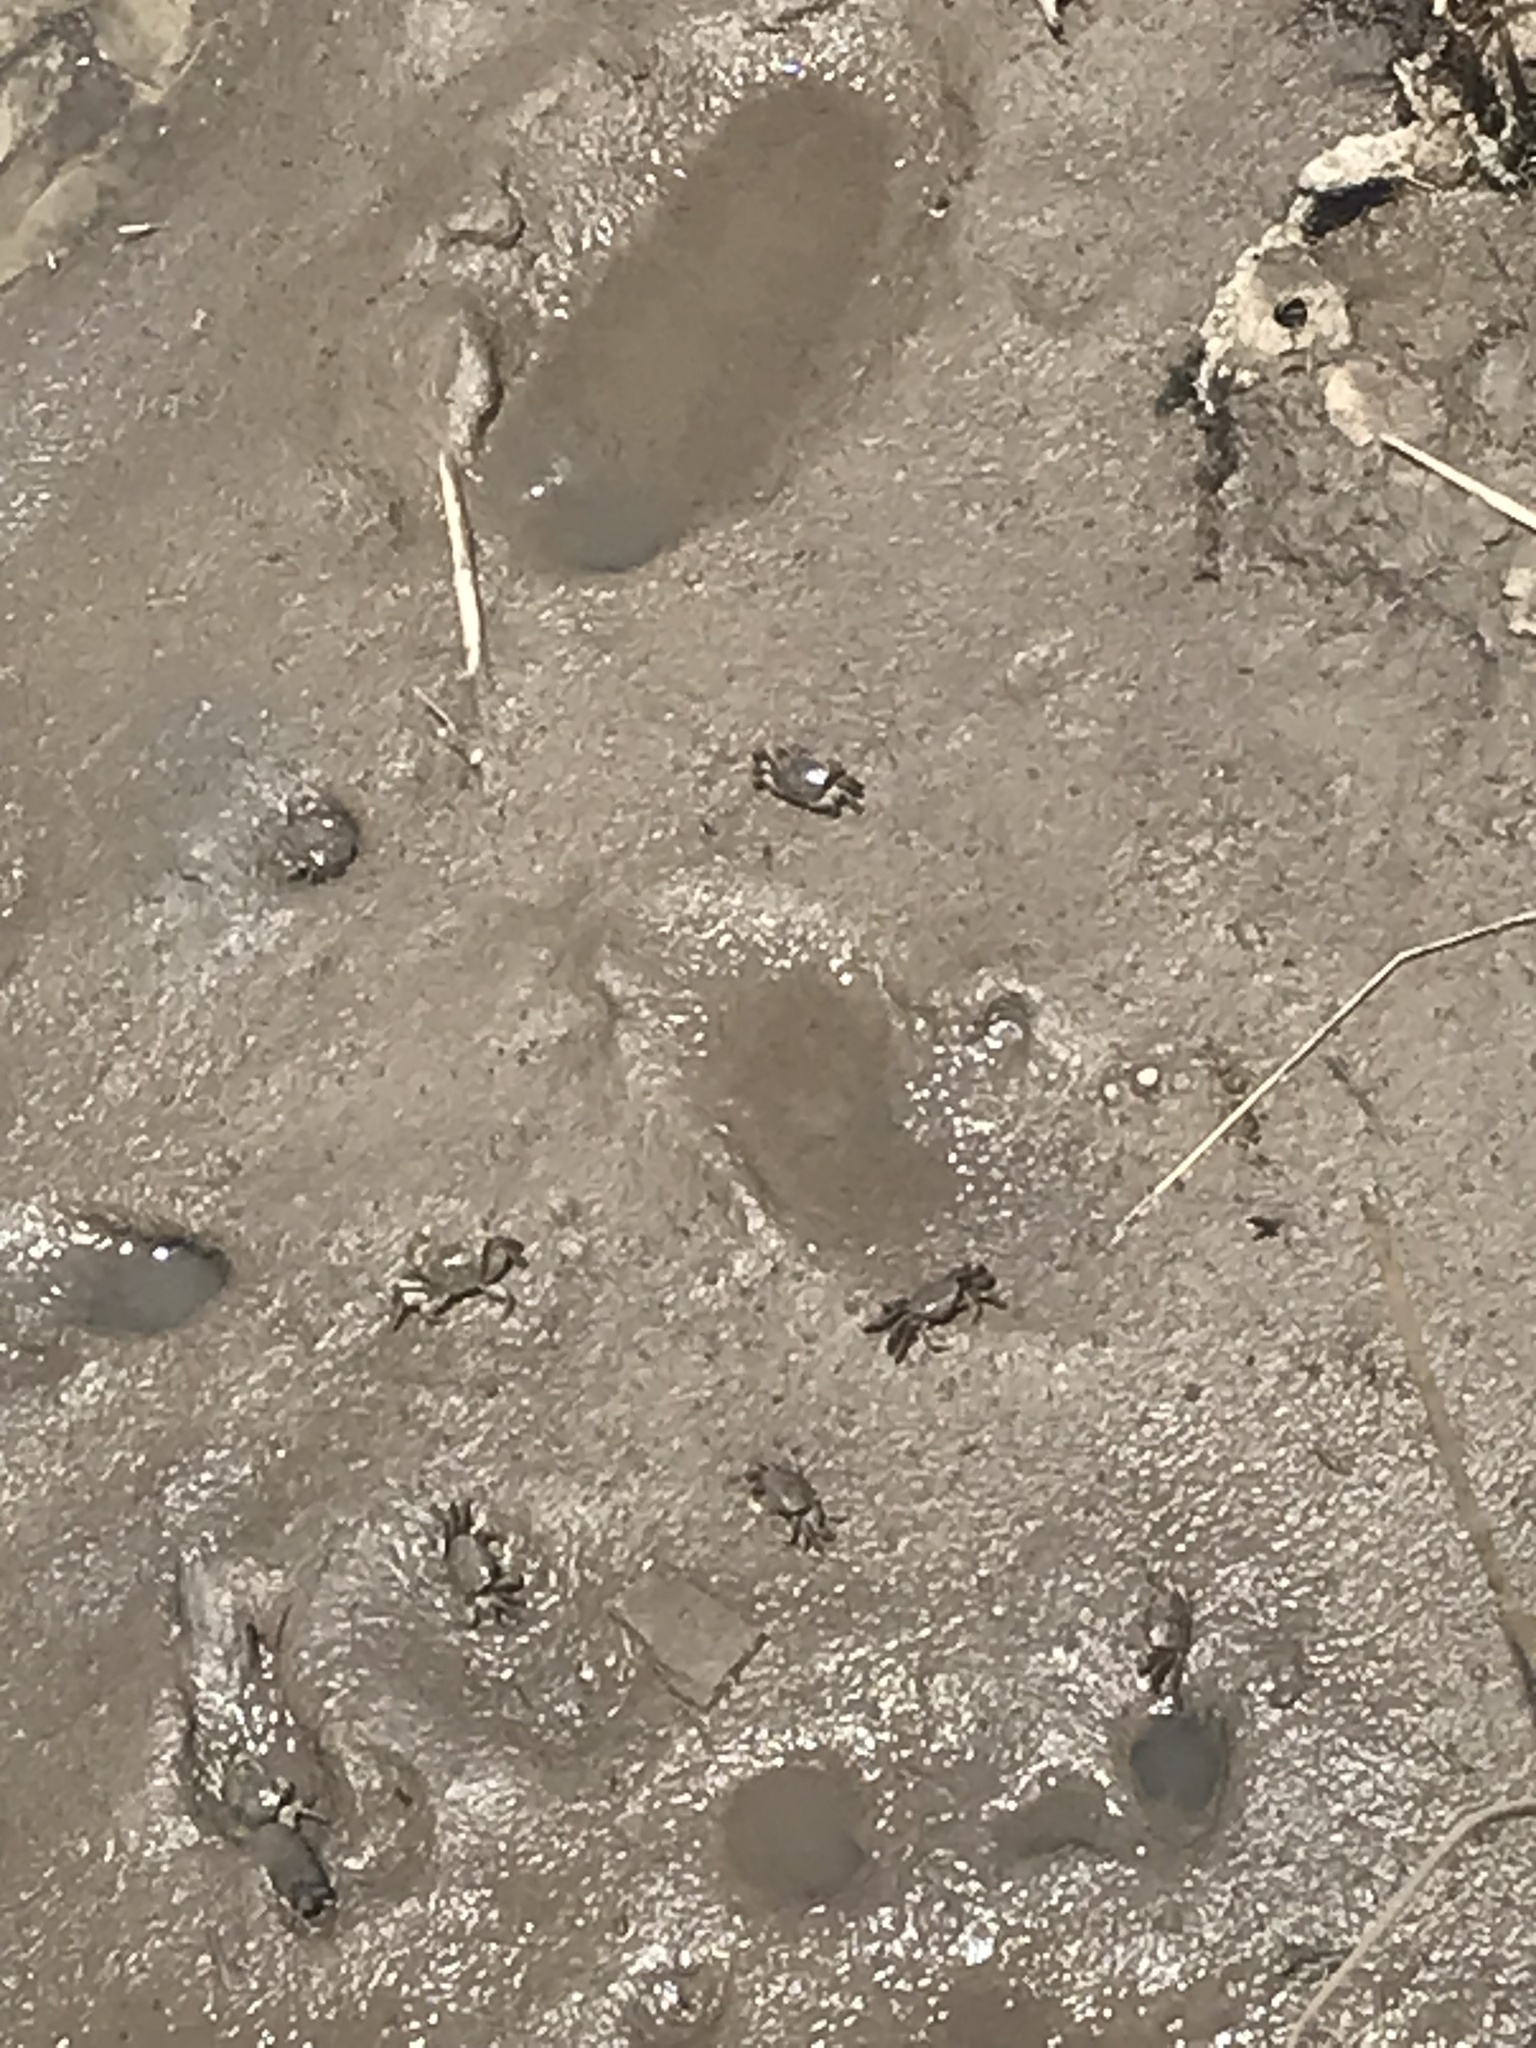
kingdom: Animalia
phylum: Arthropoda
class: Malacostraca
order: Decapoda
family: Varunidae
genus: Neohelice
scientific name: Neohelice granulata
